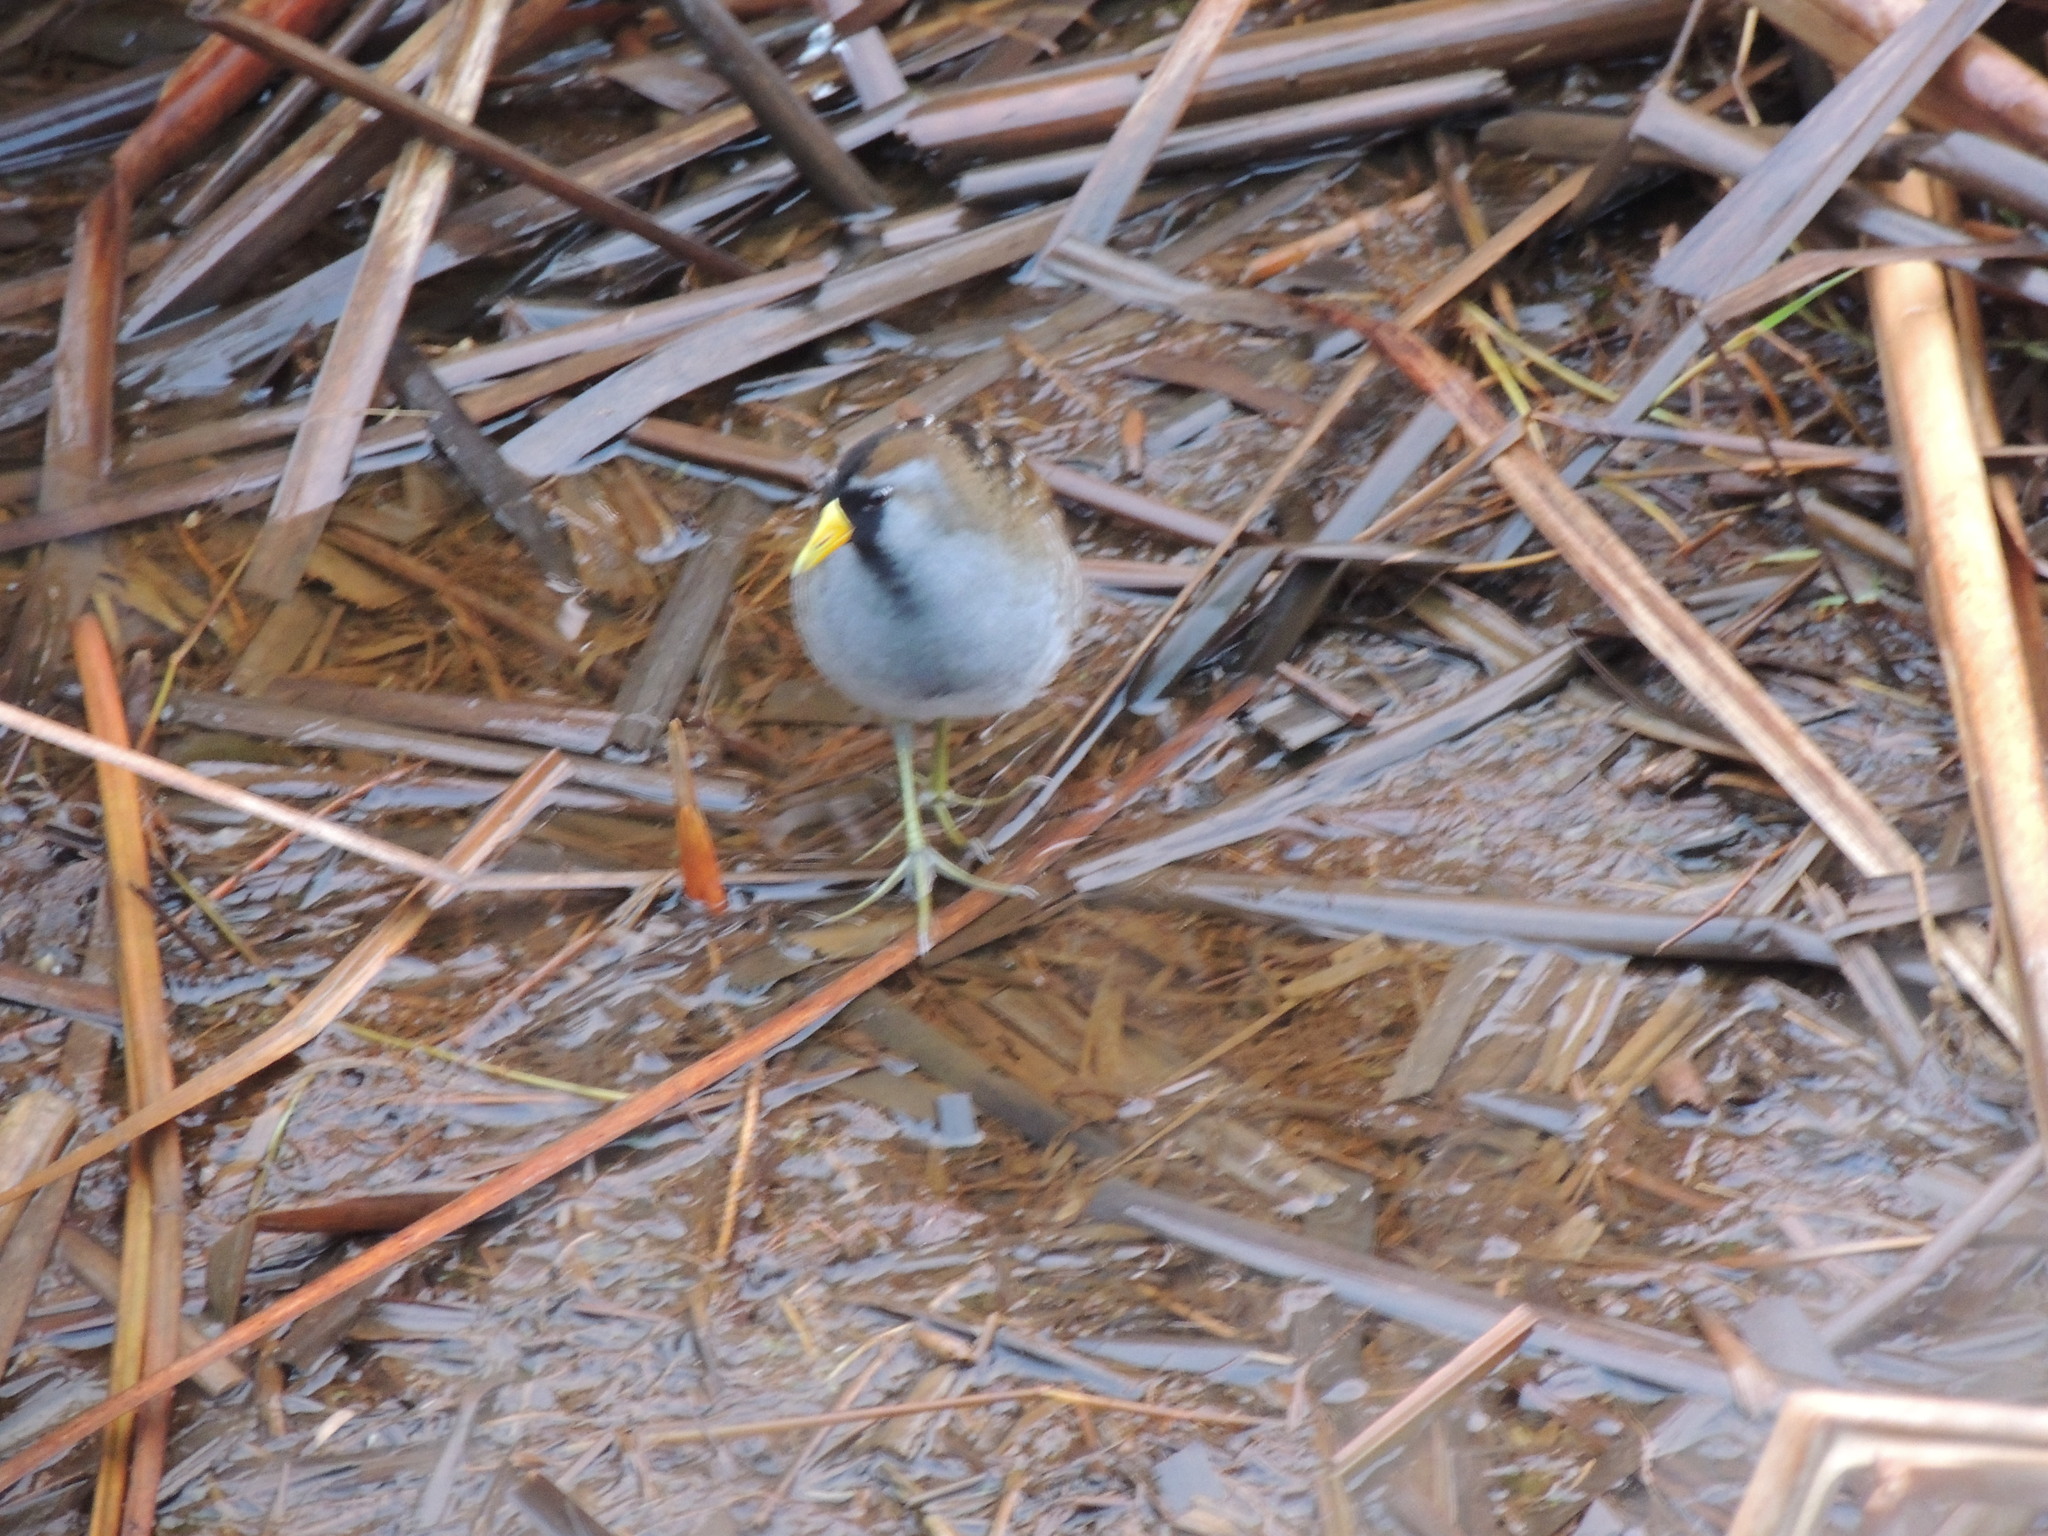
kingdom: Animalia
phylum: Chordata
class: Aves
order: Gruiformes
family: Rallidae
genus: Porzana
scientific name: Porzana carolina
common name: Sora
